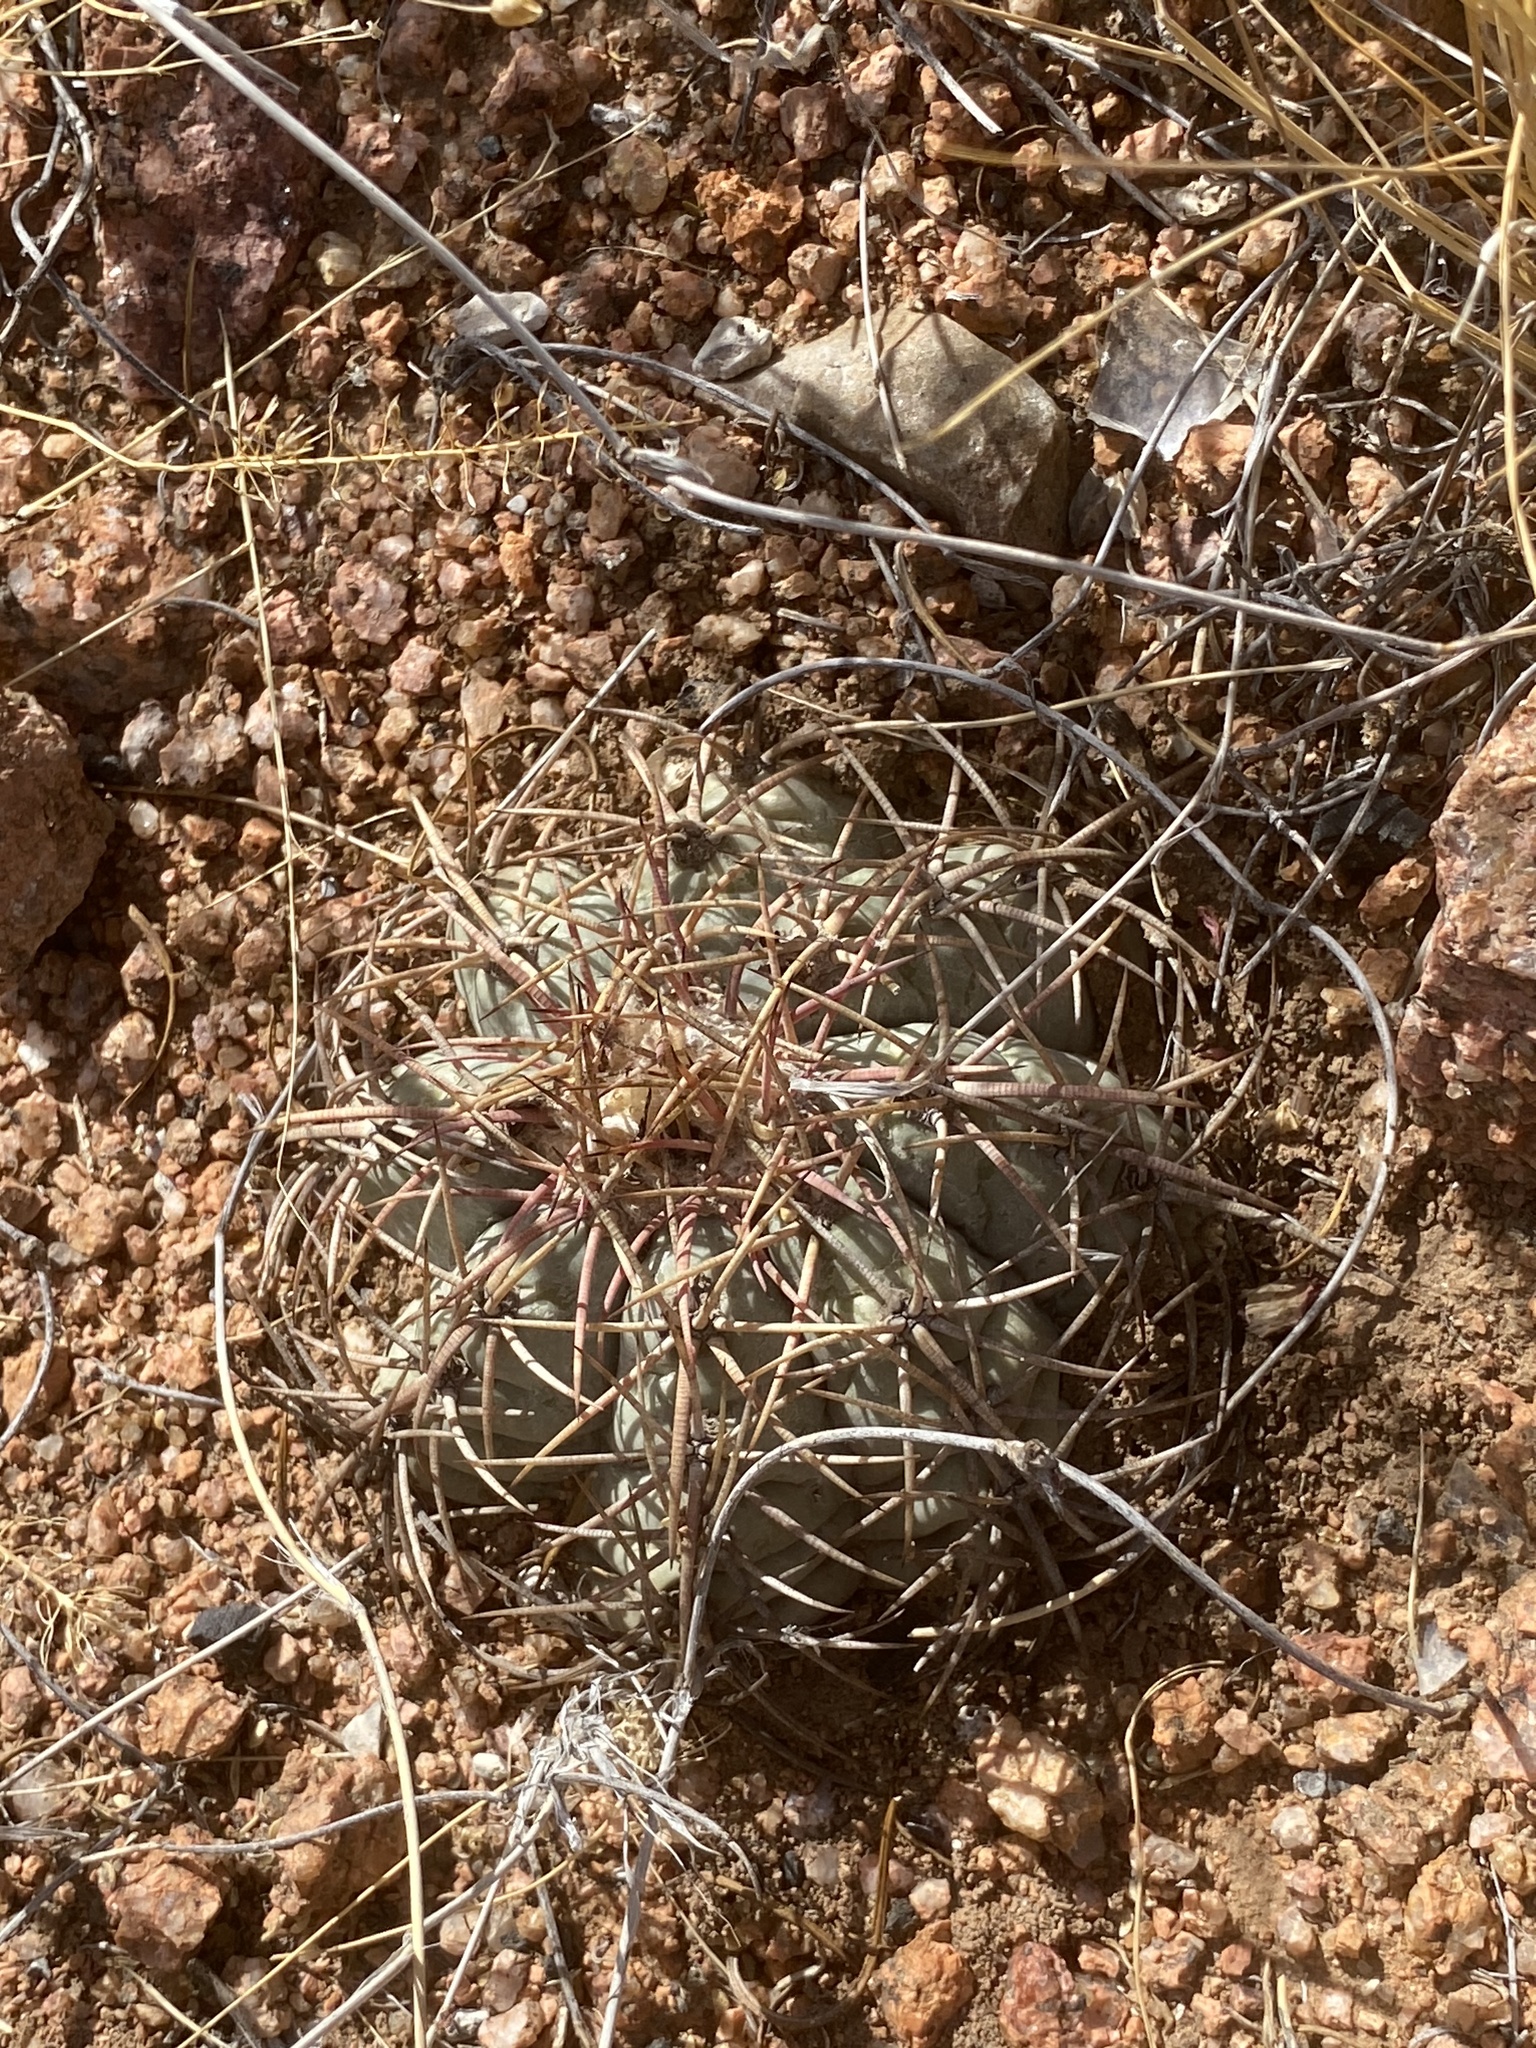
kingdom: Plantae
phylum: Tracheophyta
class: Magnoliopsida
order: Caryophyllales
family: Cactaceae
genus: Echinocactus
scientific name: Echinocactus horizonthalonius
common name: Devilshead
